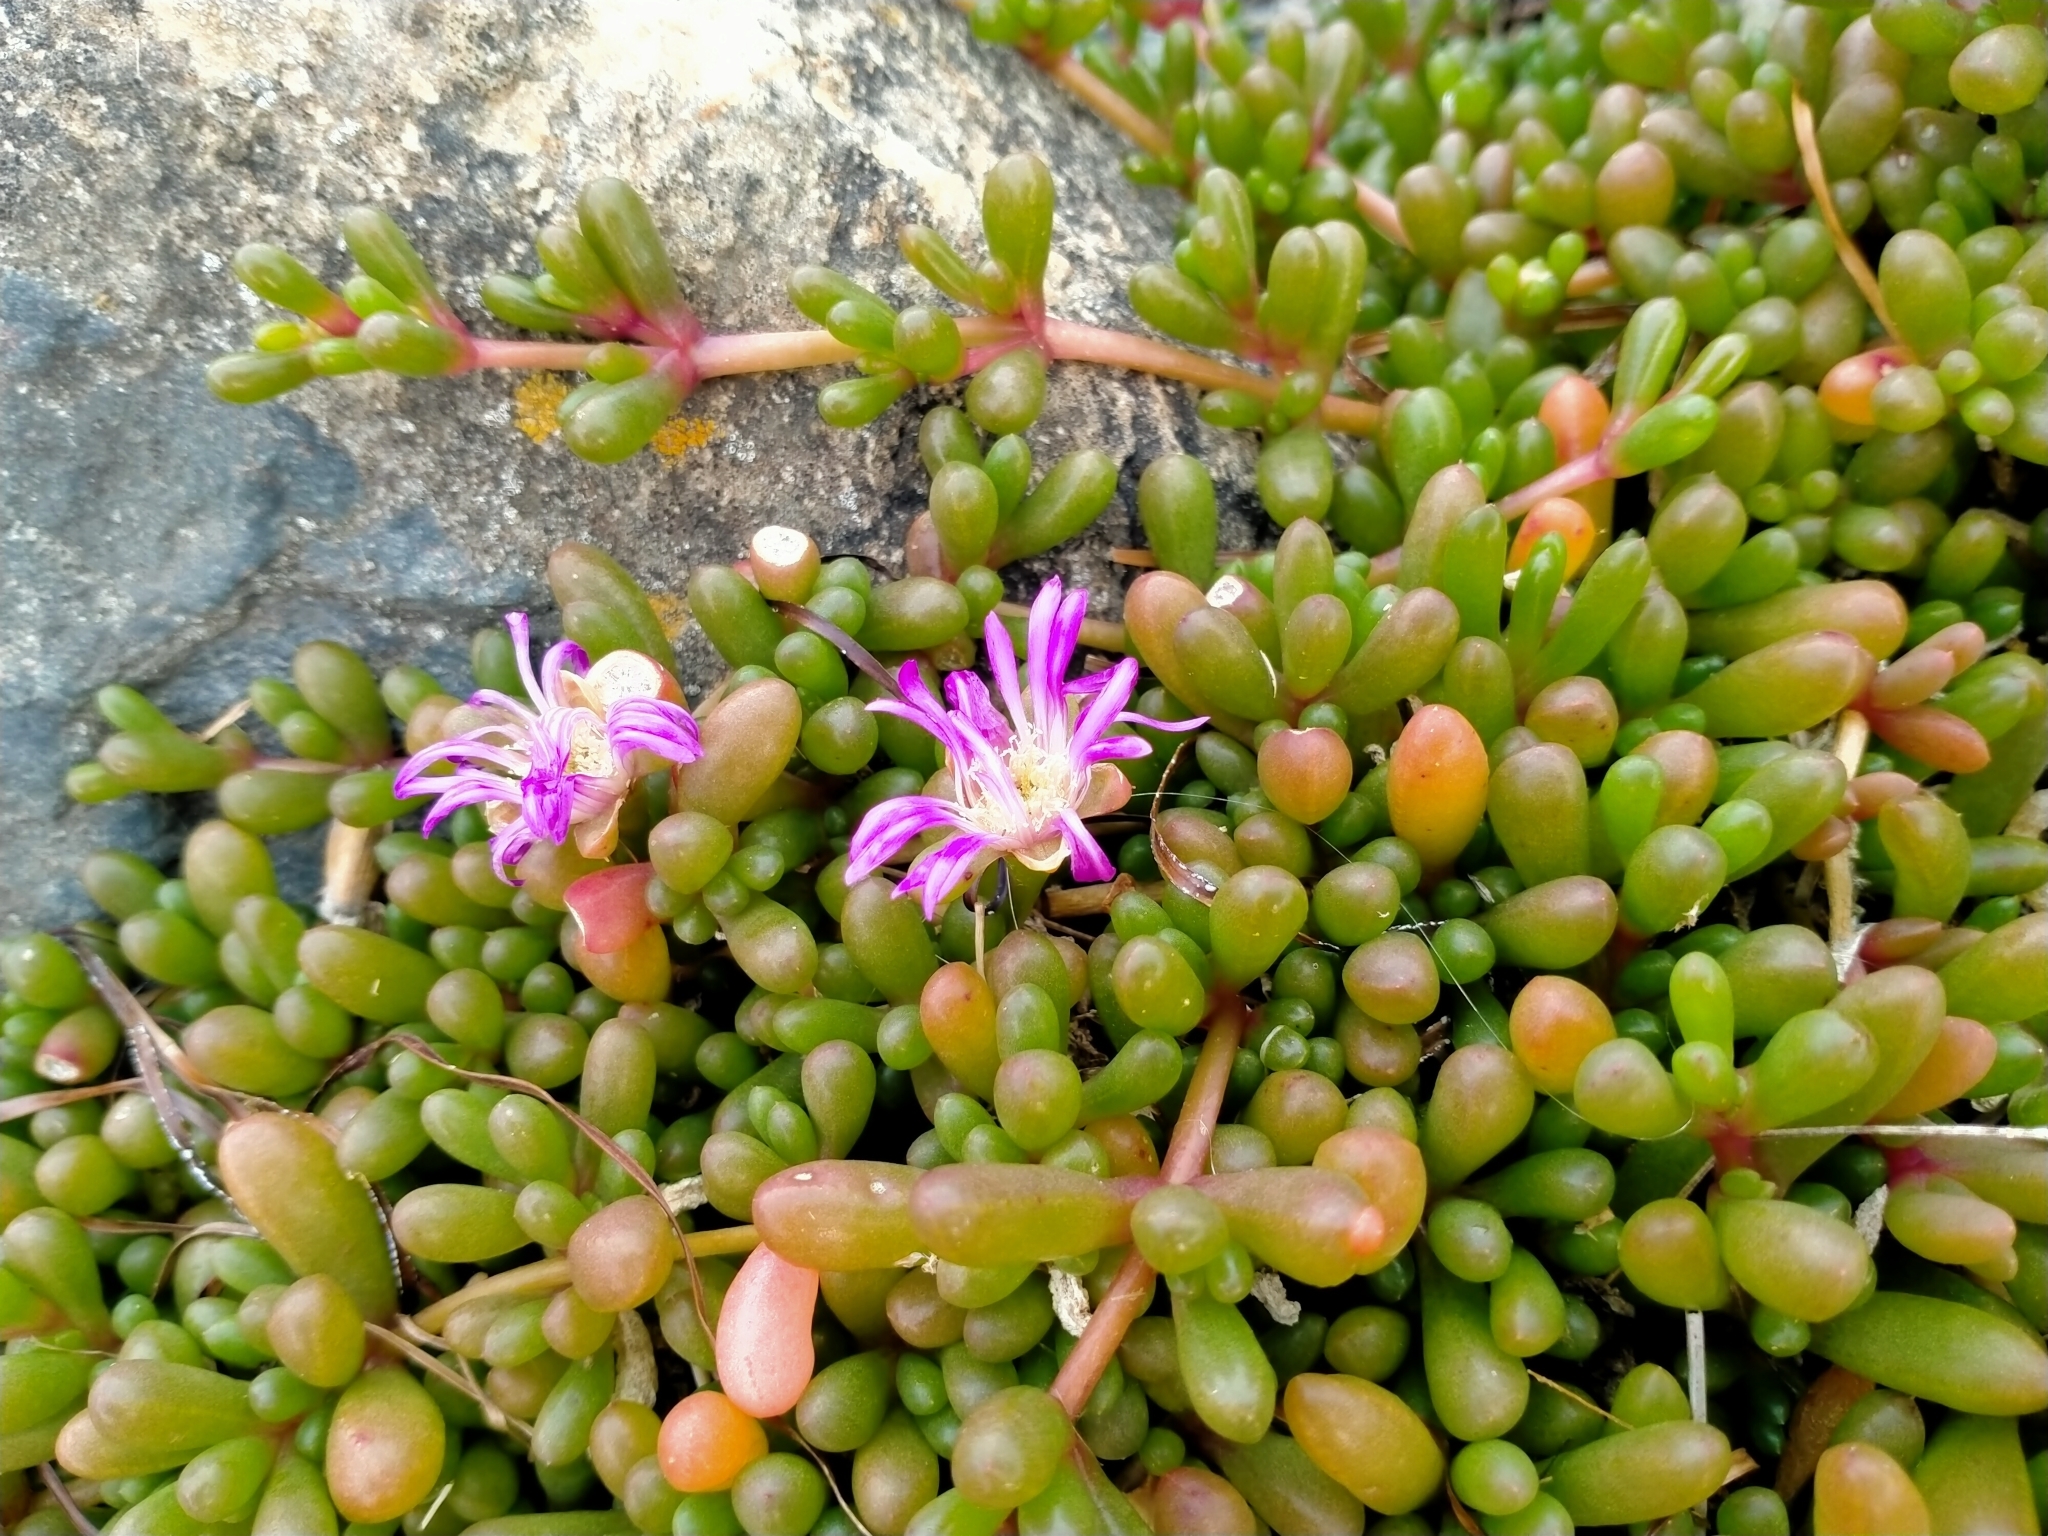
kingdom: Plantae
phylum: Tracheophyta
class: Magnoliopsida
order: Caryophyllales
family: Aizoaceae
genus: Disphyma
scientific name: Disphyma clavellatum
